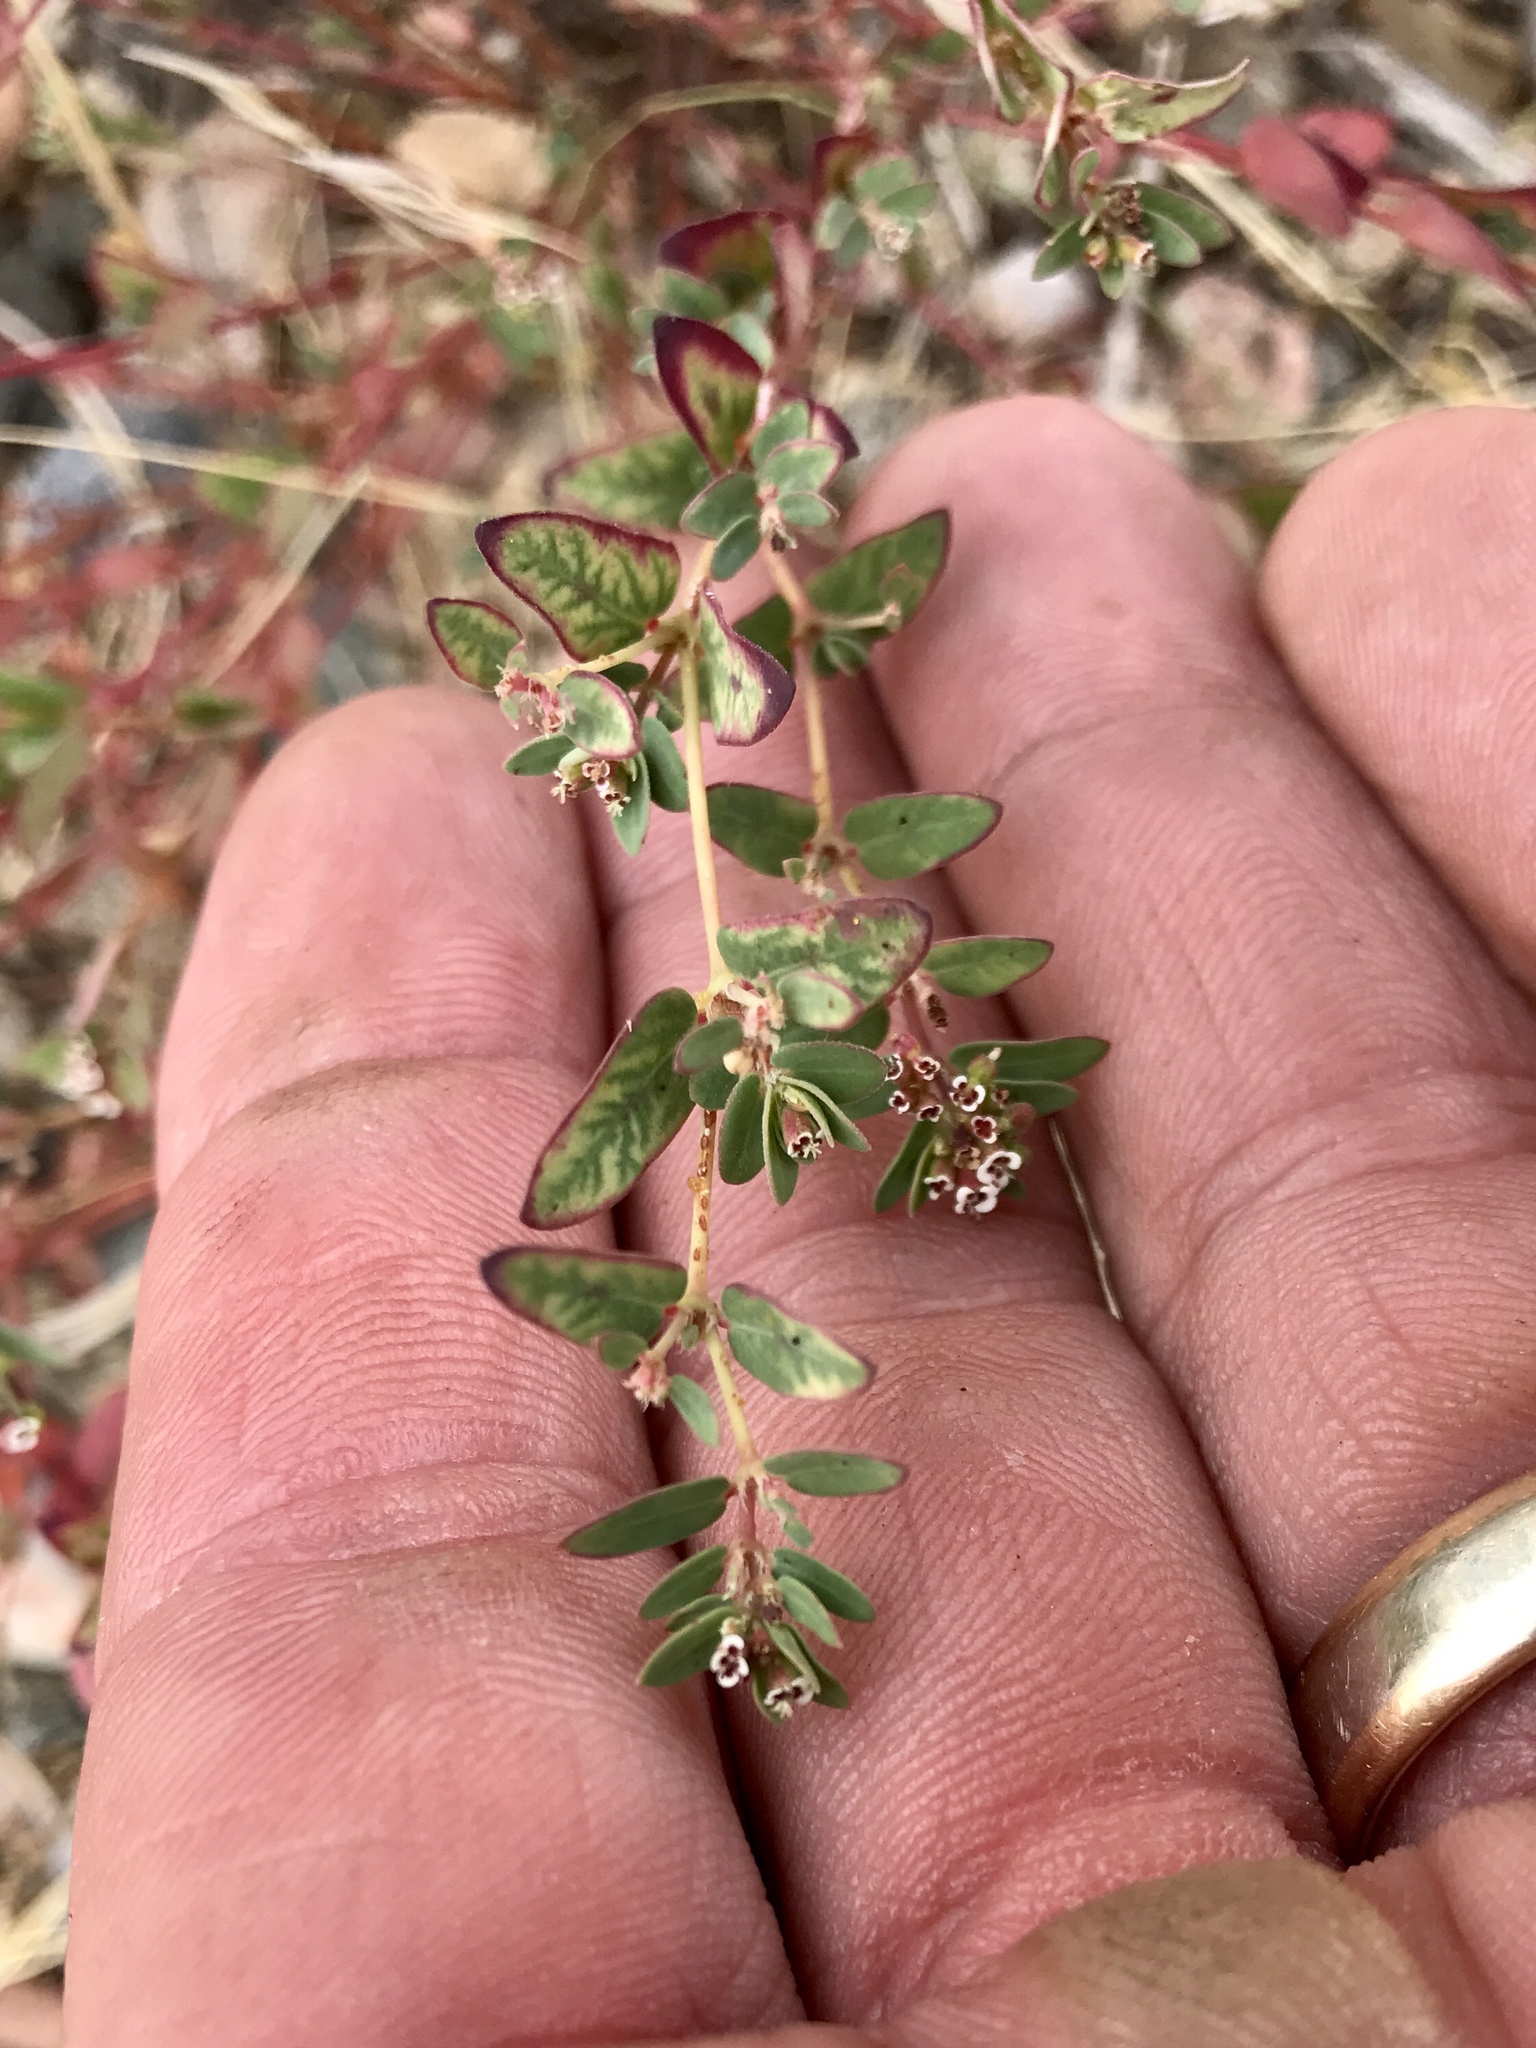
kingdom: Plantae
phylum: Tracheophyta
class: Magnoliopsida
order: Malpighiales
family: Euphorbiaceae
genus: Euphorbia
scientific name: Euphorbia capitellata
